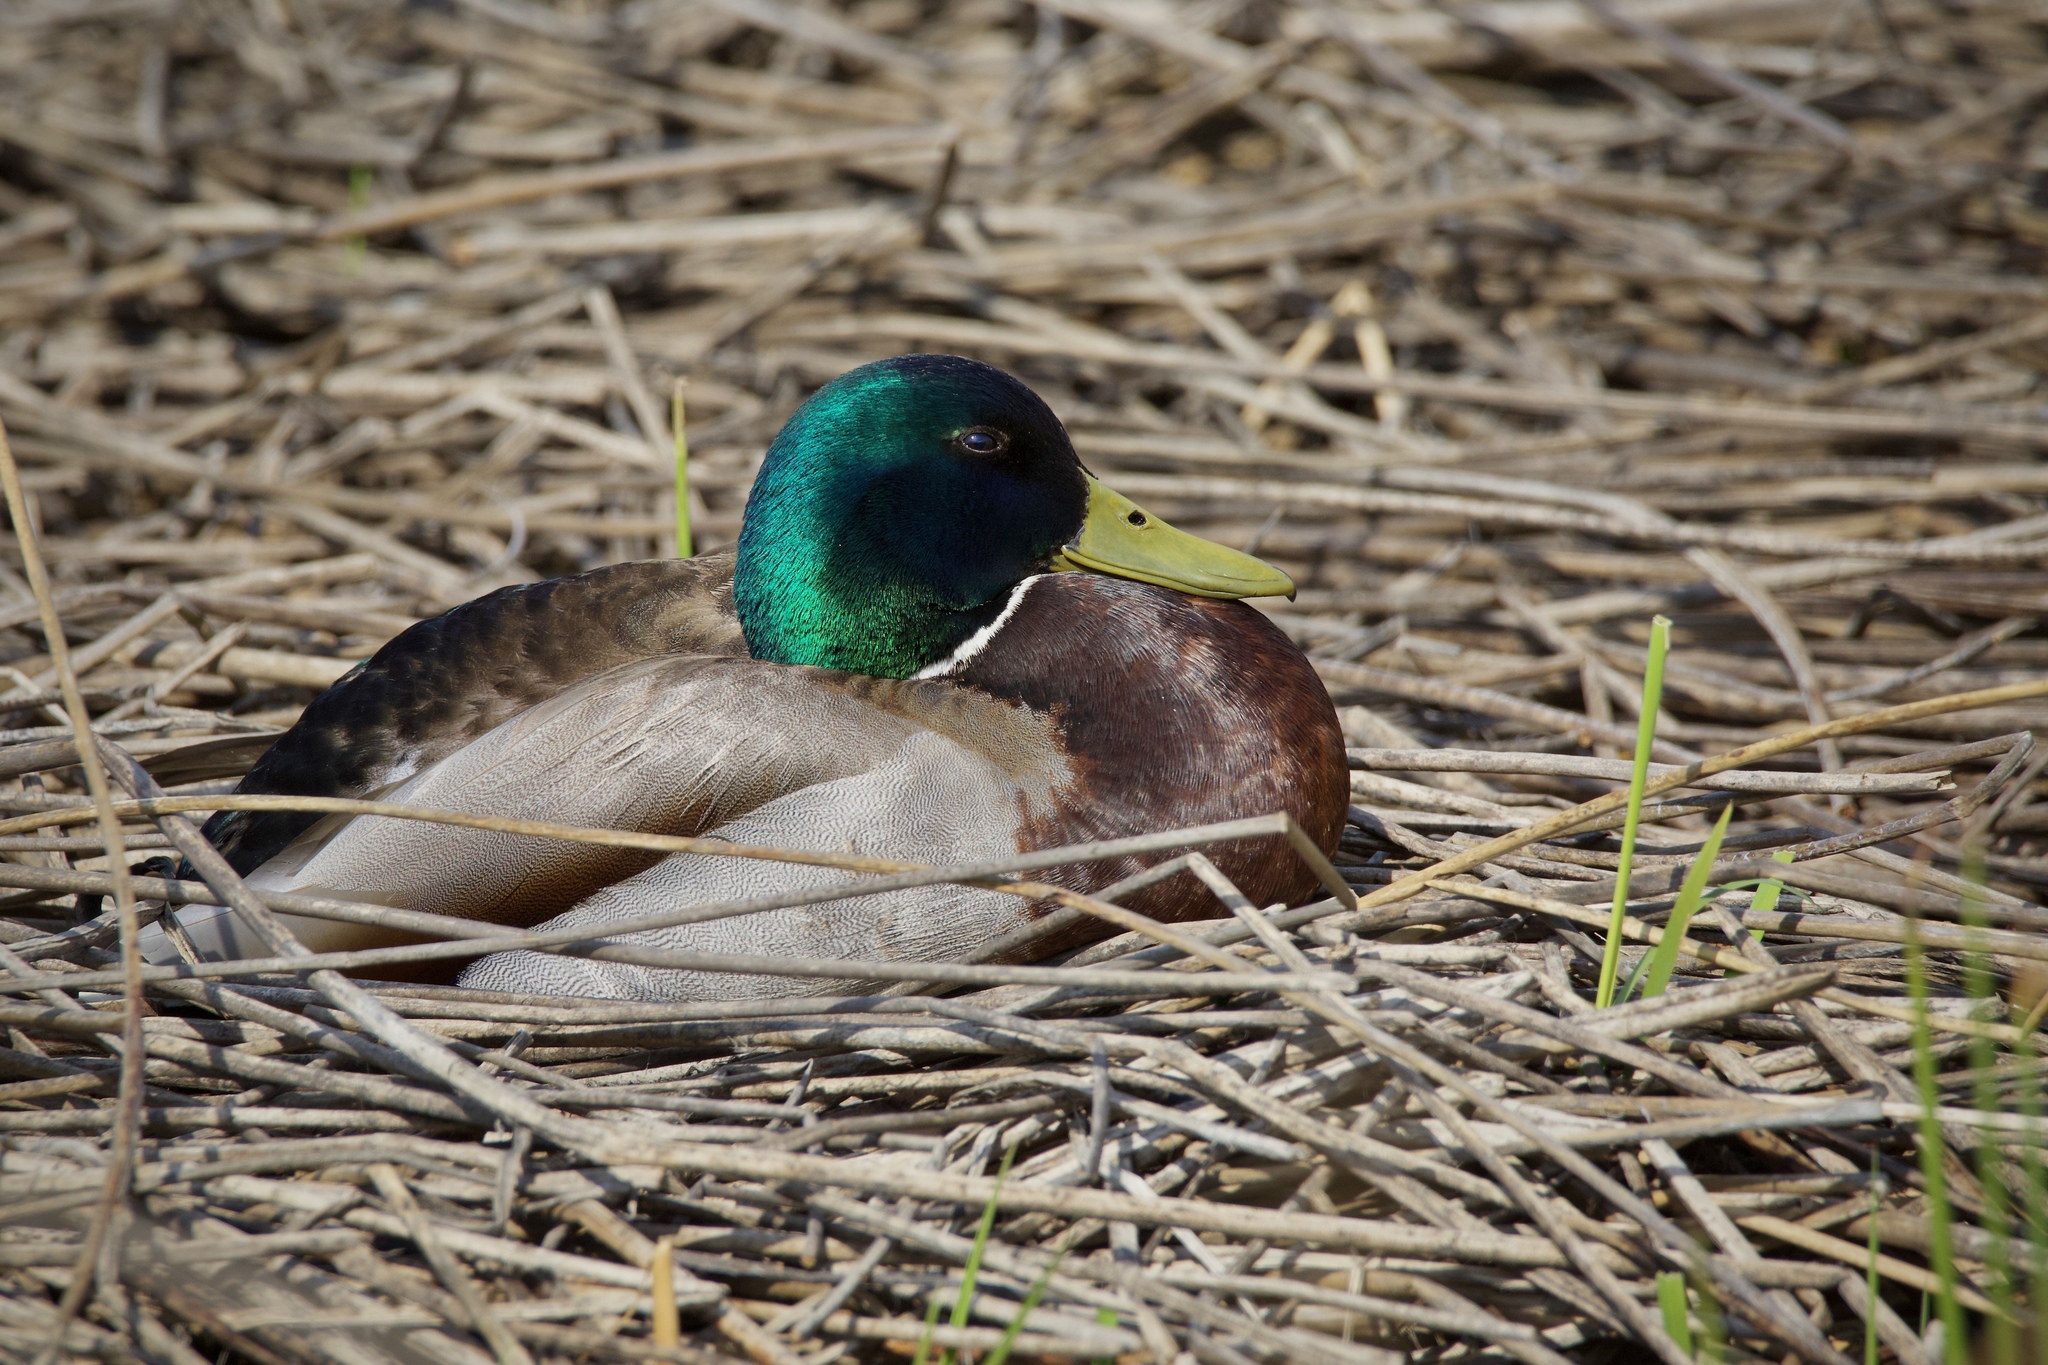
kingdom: Animalia
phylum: Chordata
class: Aves
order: Anseriformes
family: Anatidae
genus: Anas
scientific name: Anas platyrhynchos
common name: Mallard
